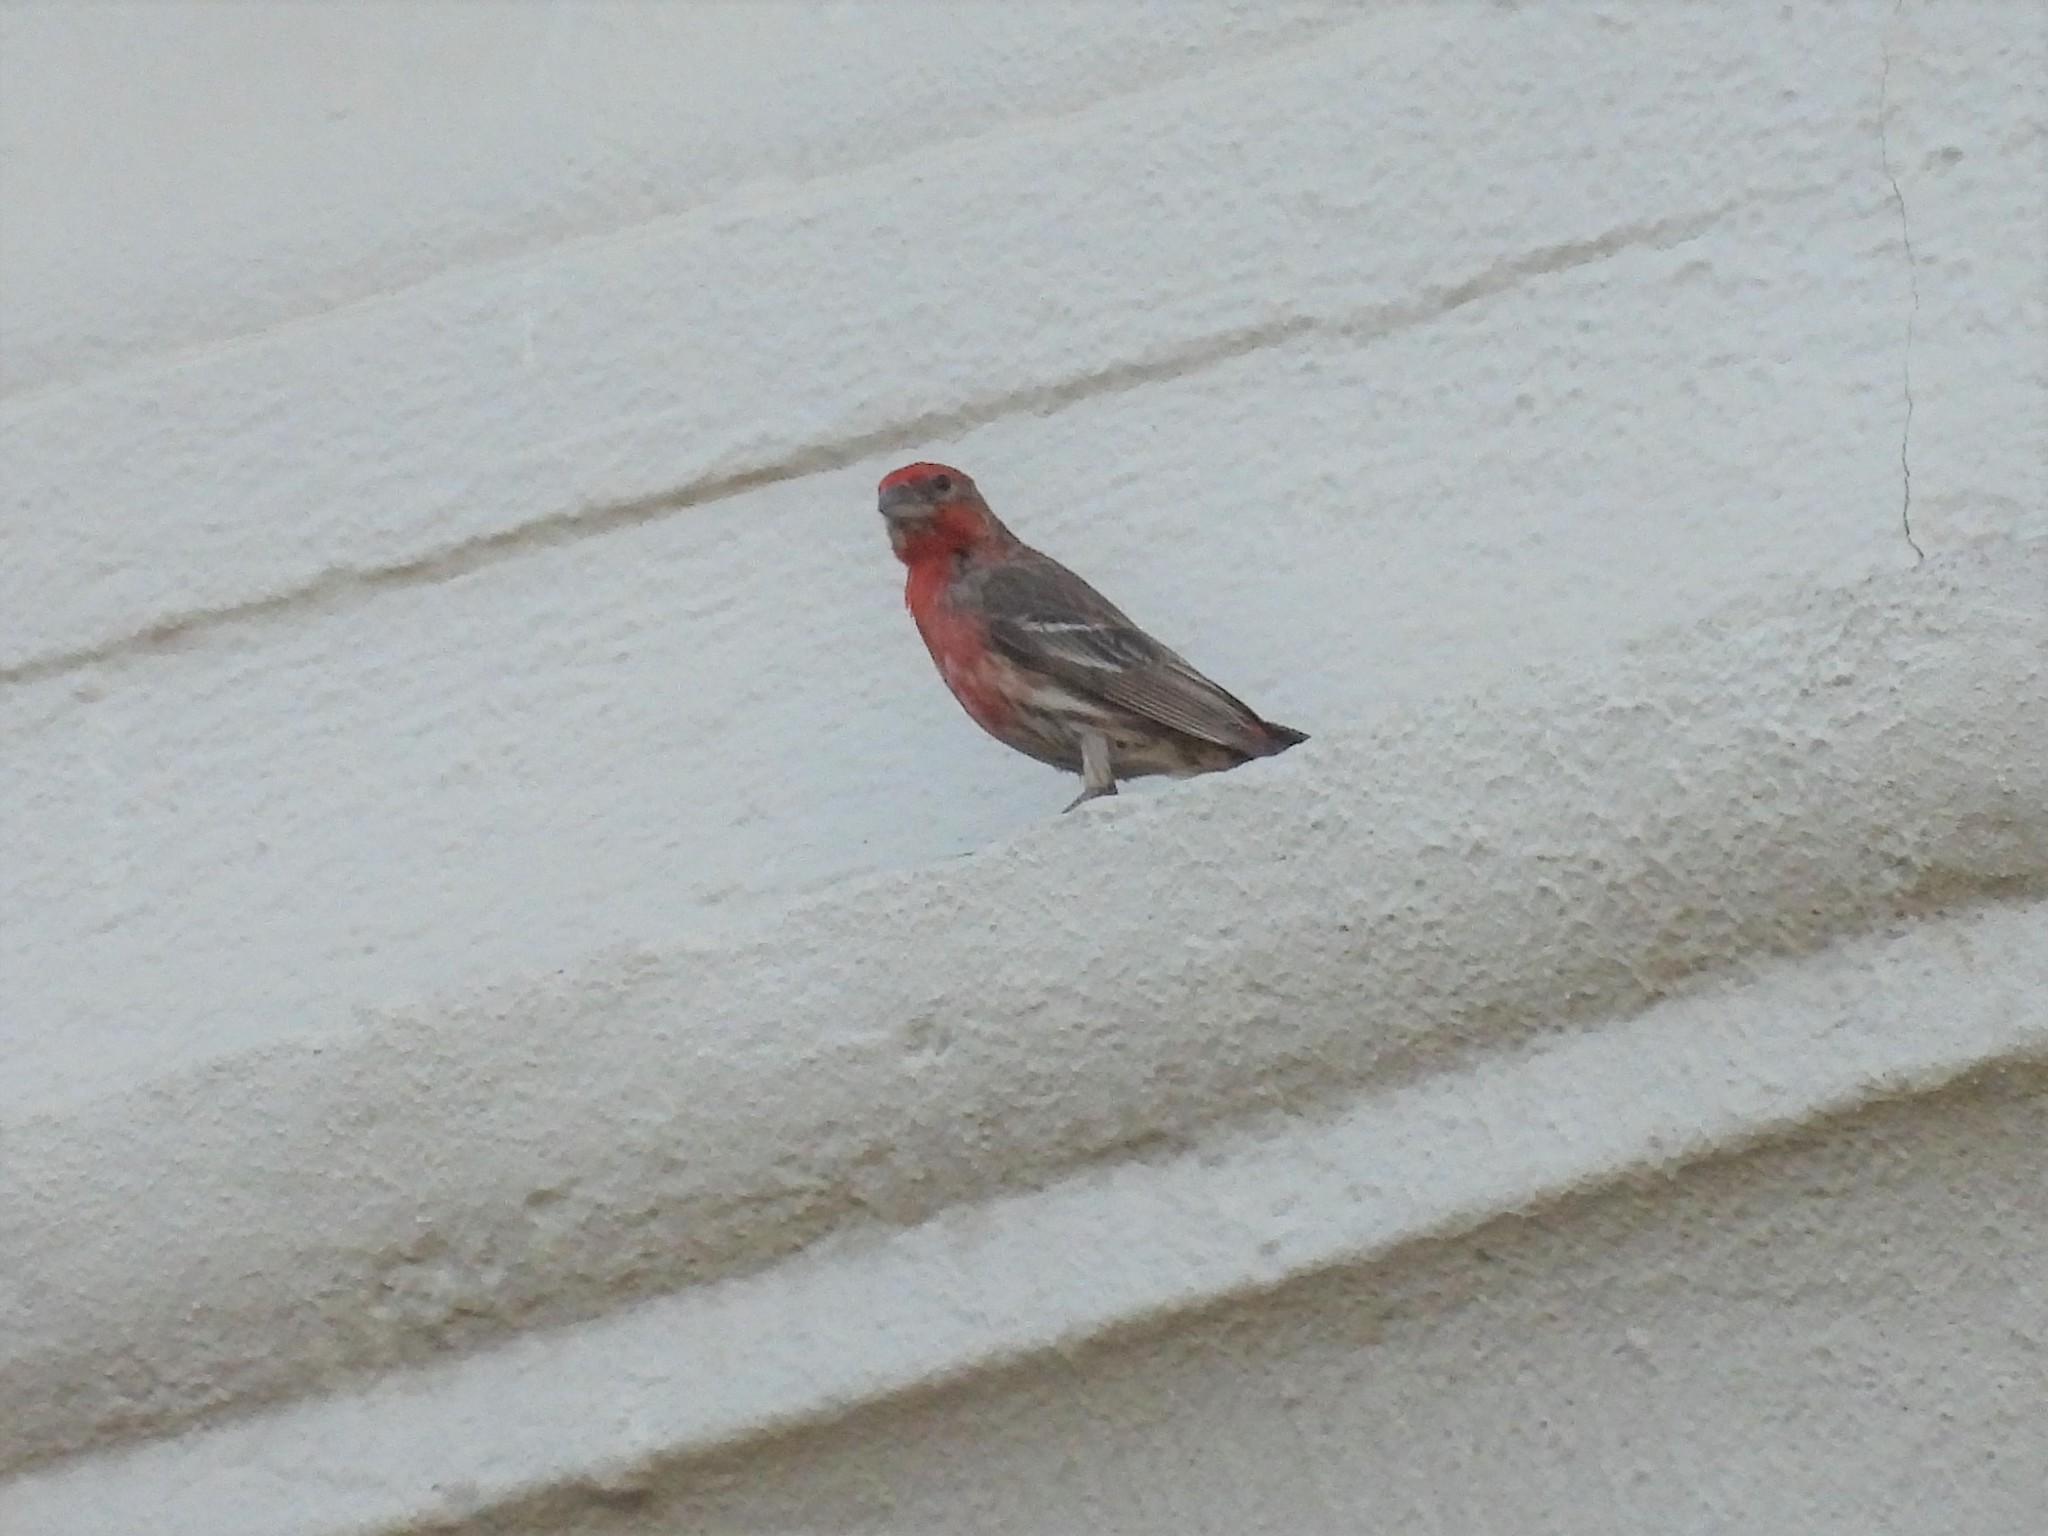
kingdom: Animalia
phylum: Chordata
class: Aves
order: Passeriformes
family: Fringillidae
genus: Haemorhous
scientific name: Haemorhous mexicanus
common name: House finch
